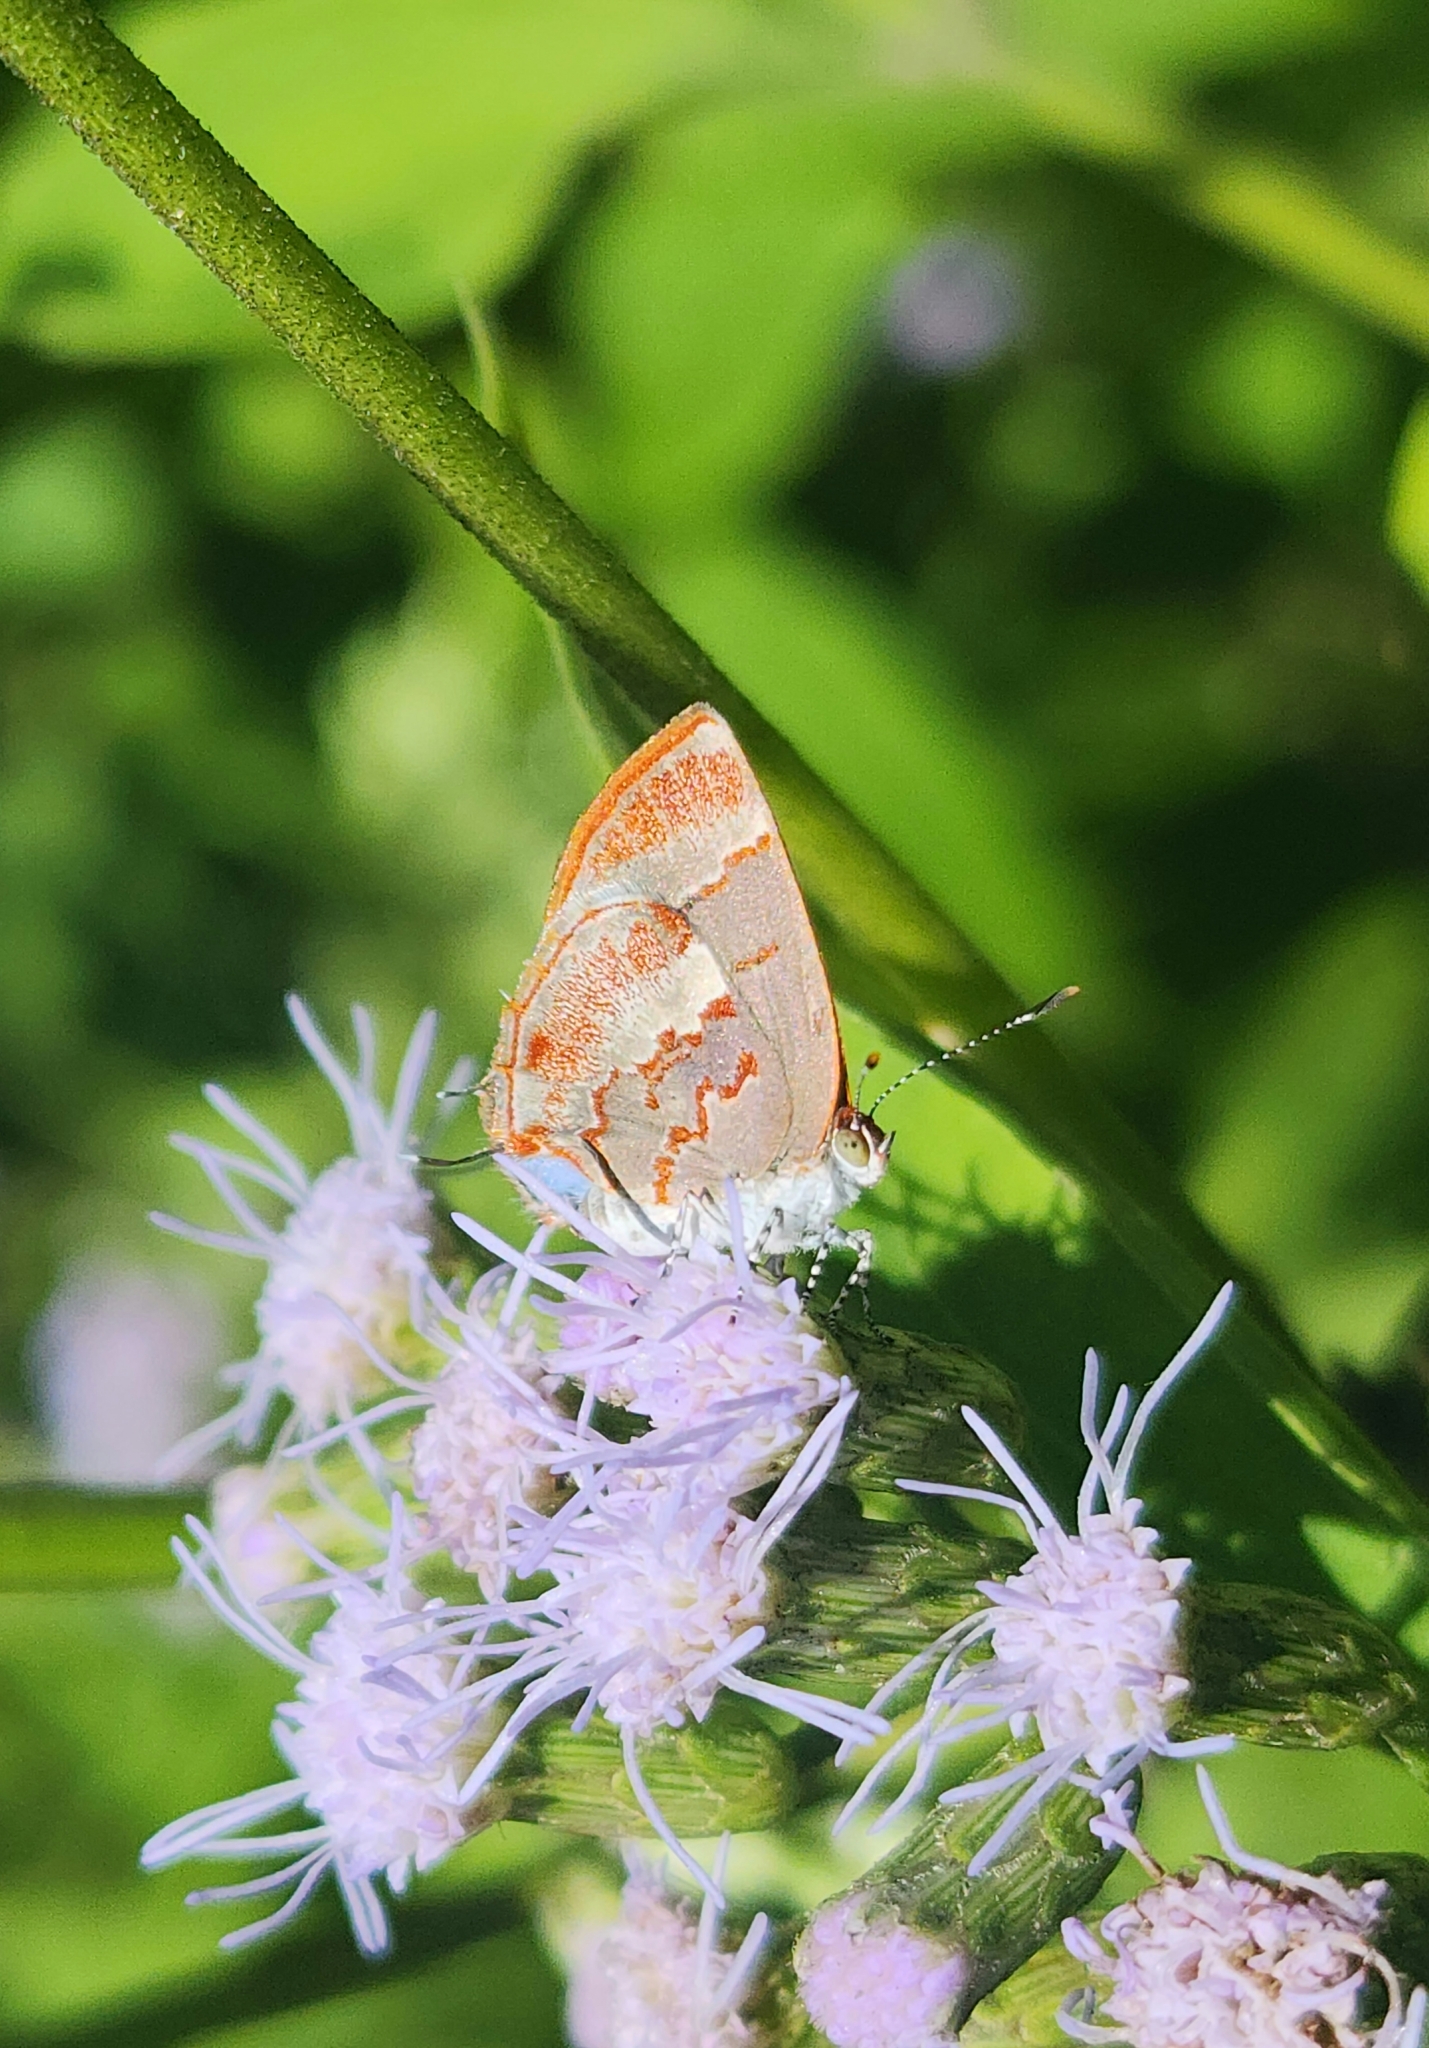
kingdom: Animalia
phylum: Arthropoda
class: Insecta
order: Lepidoptera
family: Lycaenidae
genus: Thecla
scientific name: Thecla cruenta
